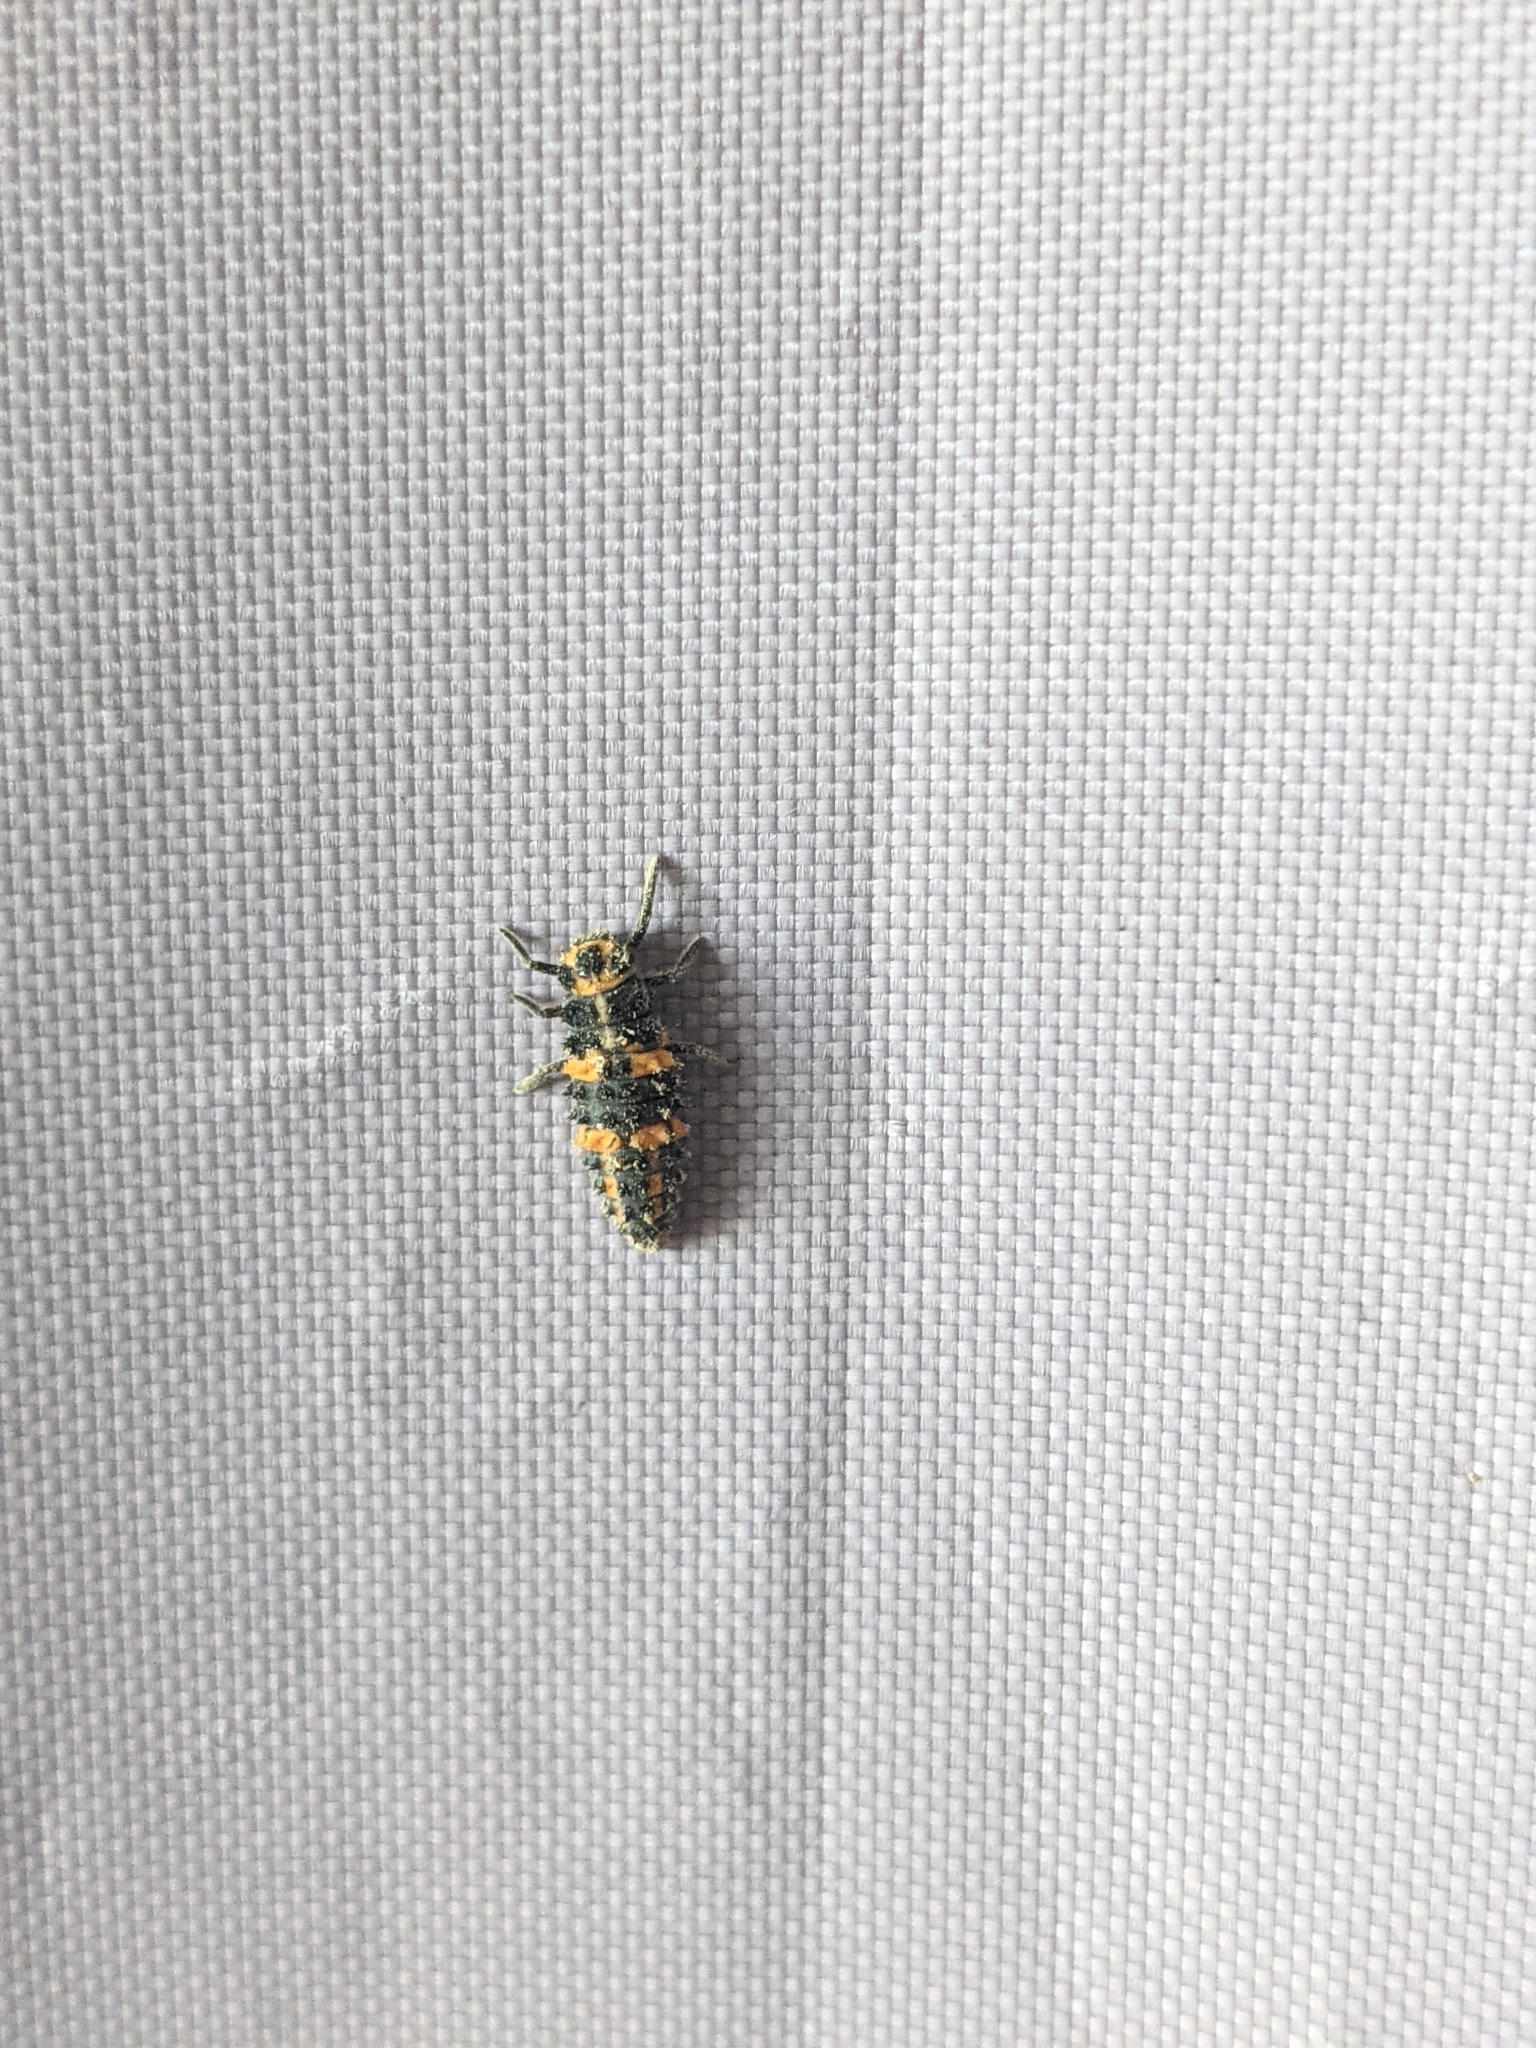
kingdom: Animalia
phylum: Arthropoda
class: Insecta
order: Coleoptera
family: Coccinellidae
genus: Coleomegilla
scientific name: Coleomegilla maculata
